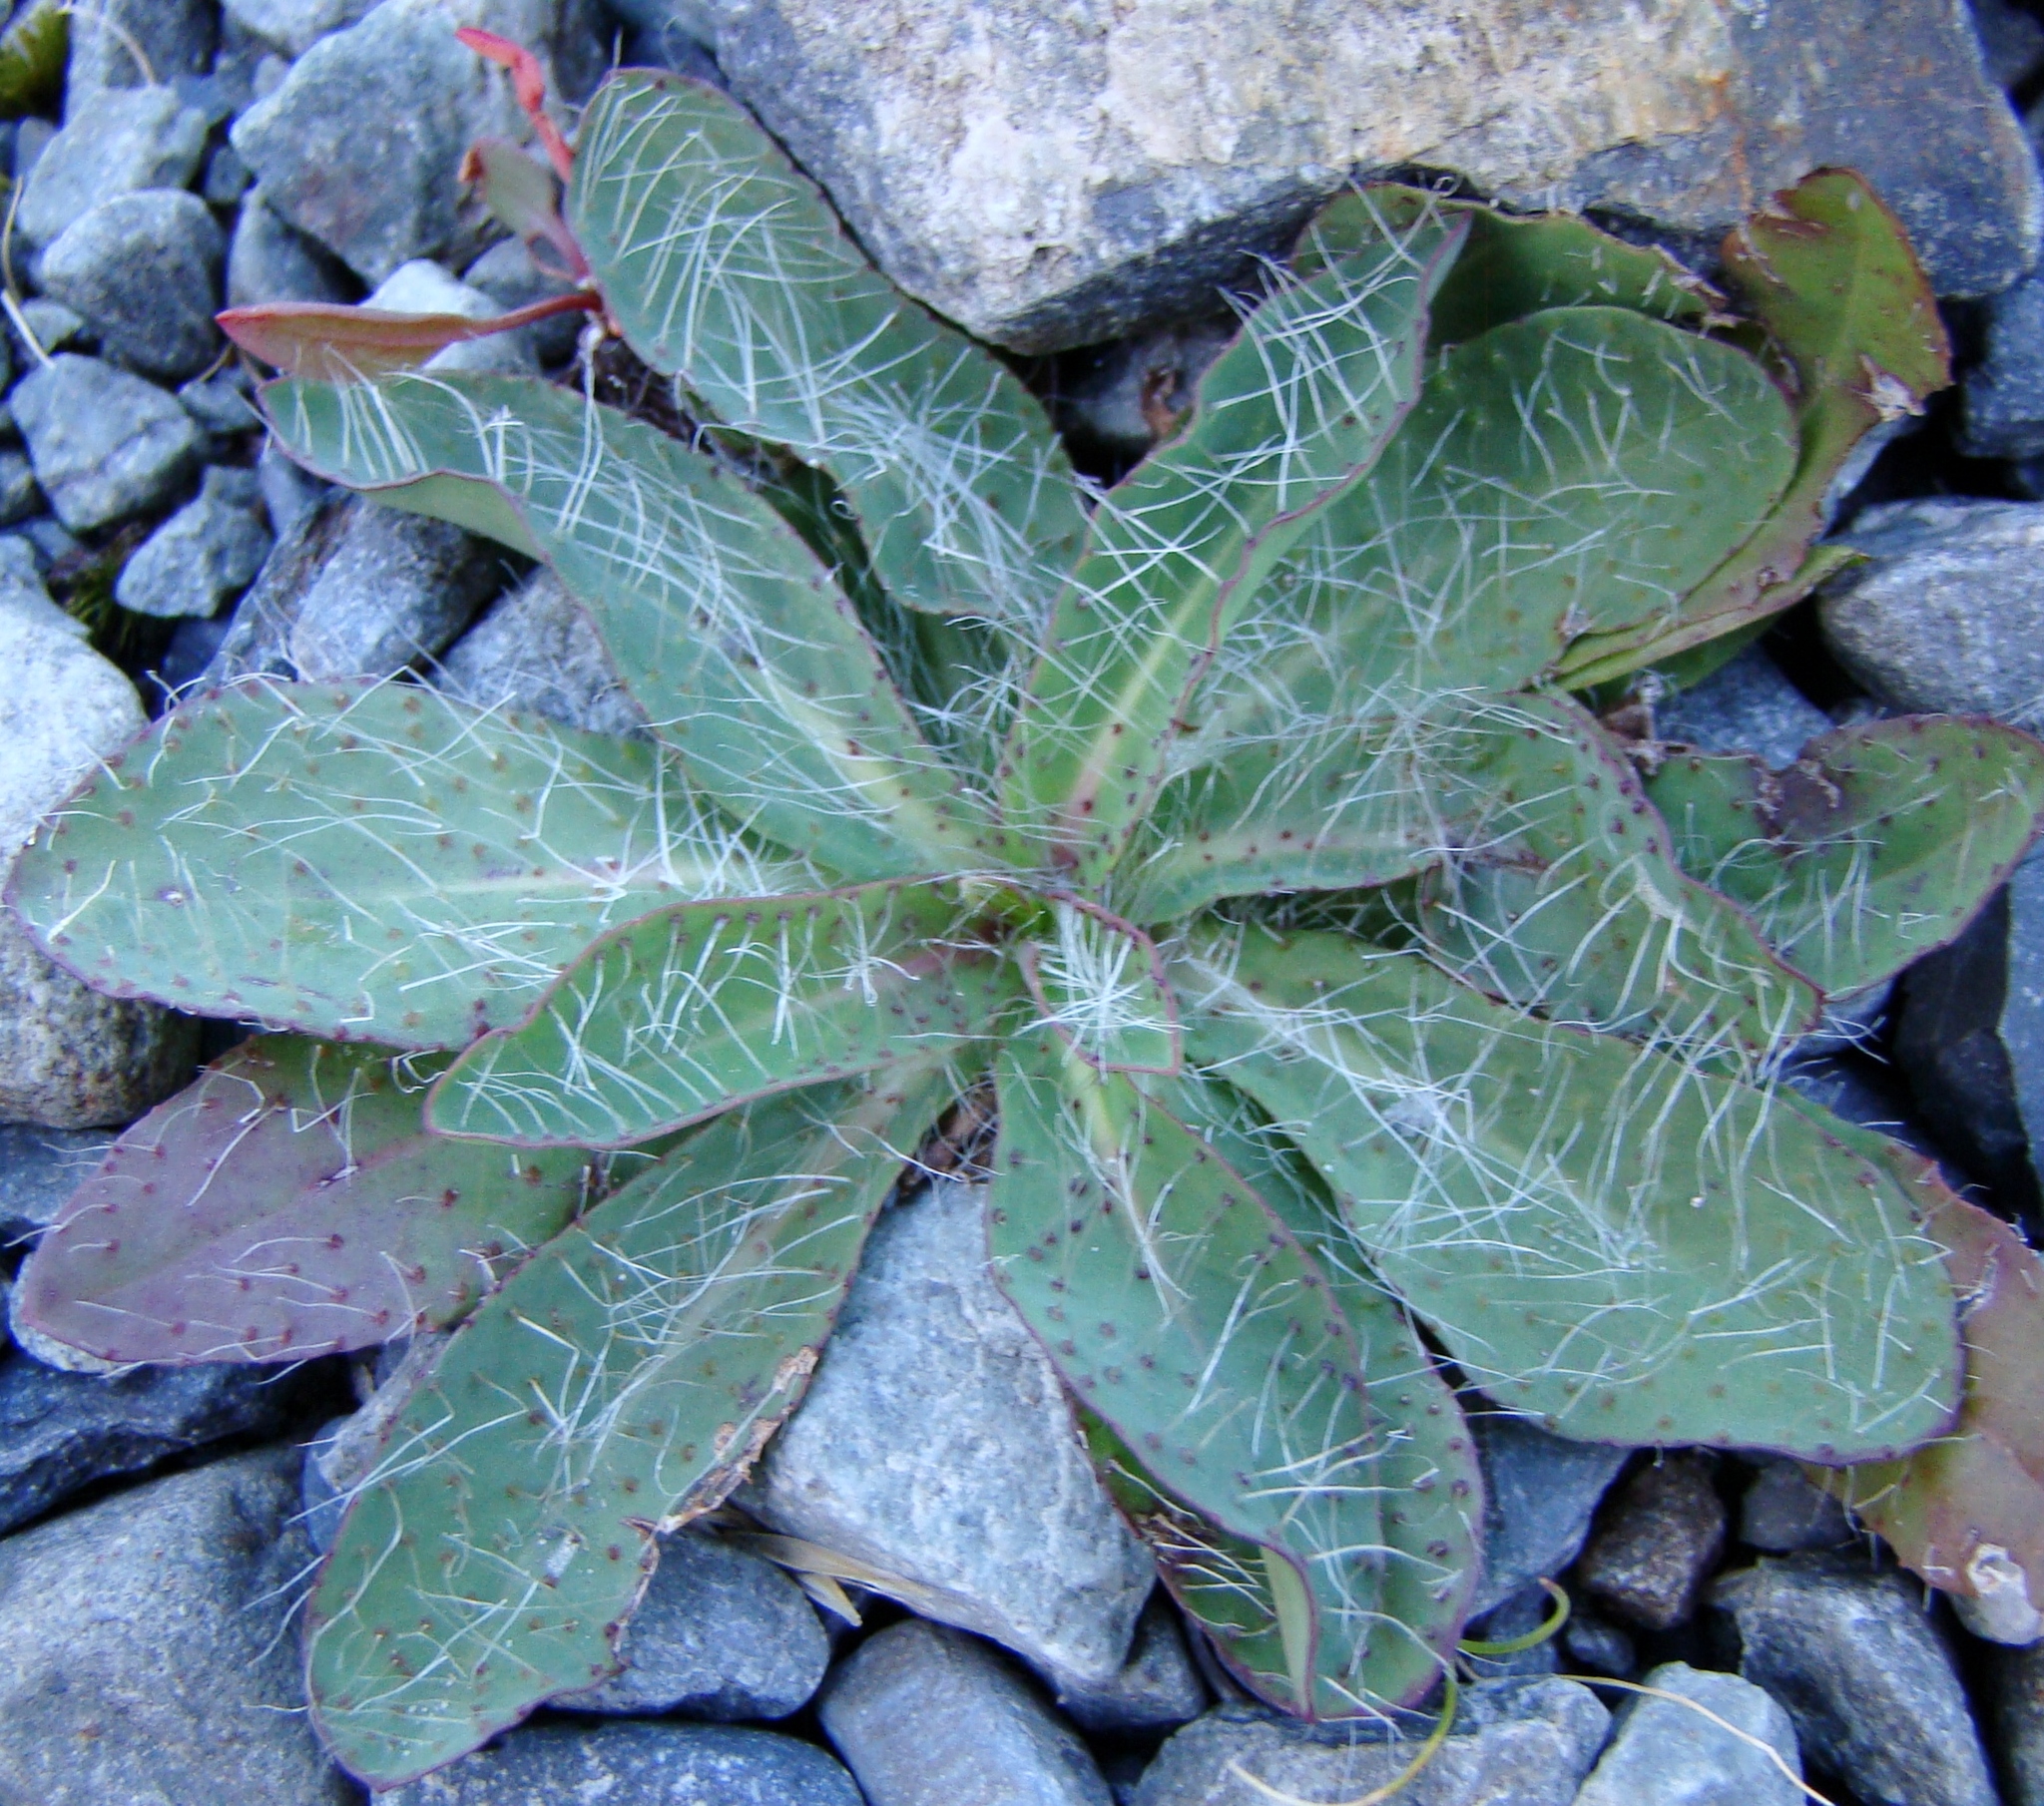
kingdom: Plantae
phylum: Tracheophyta
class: Magnoliopsida
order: Asterales
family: Asteraceae
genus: Pilosella
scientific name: Pilosella piloselloides
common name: Glaucous king-devil
